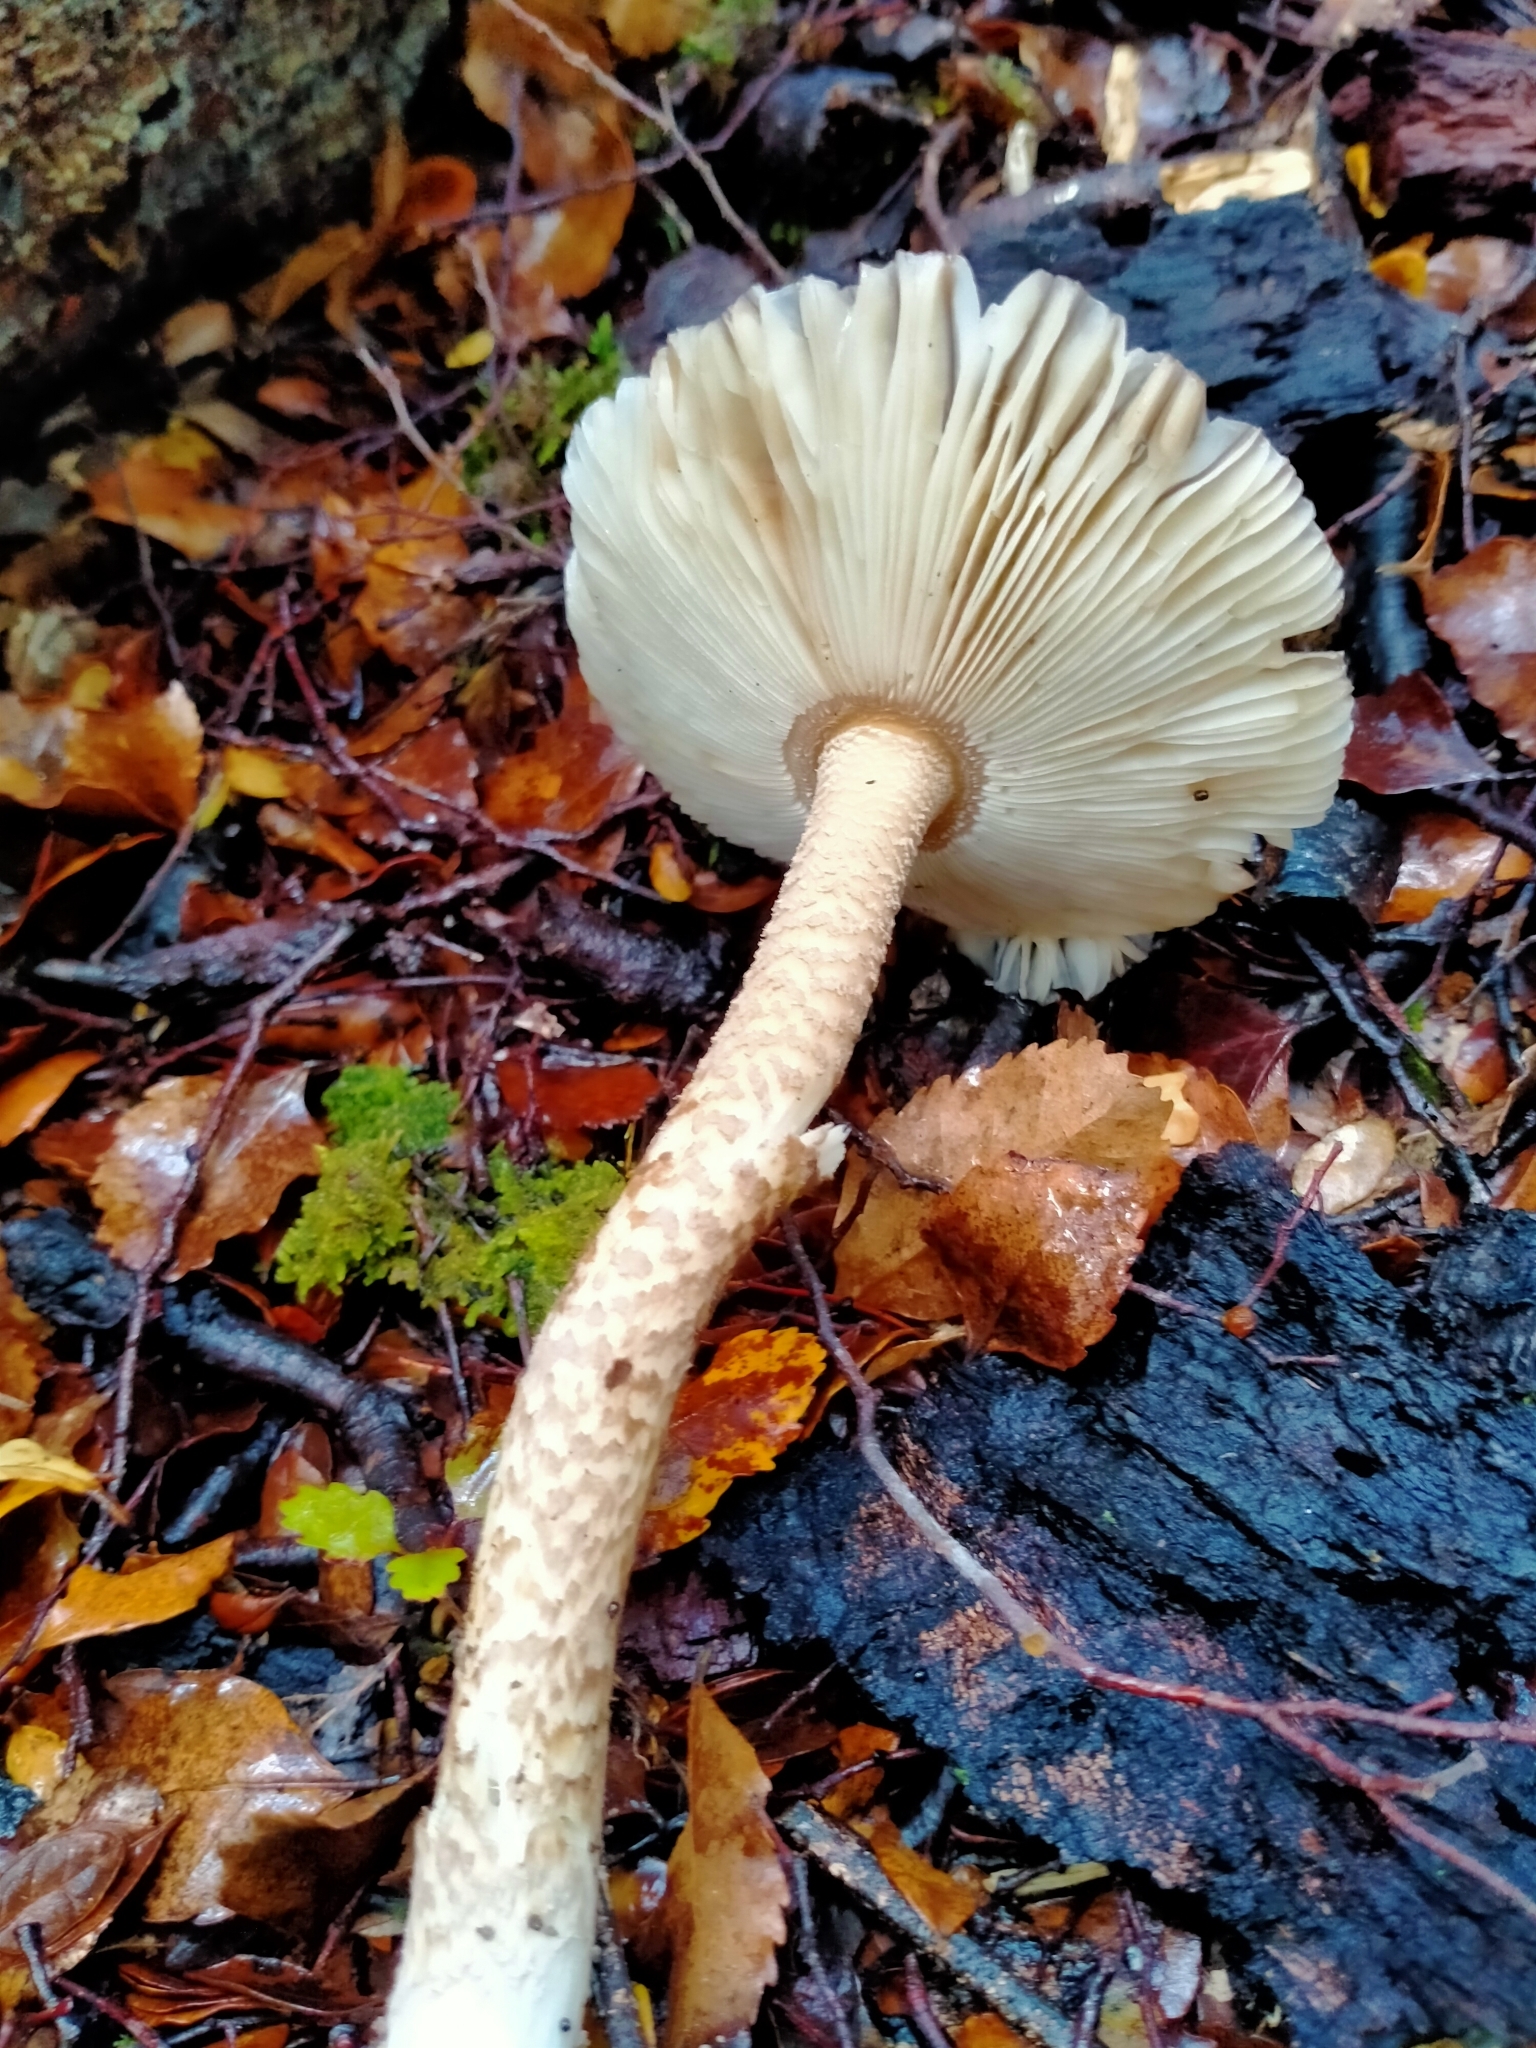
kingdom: Fungi
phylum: Basidiomycota
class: Agaricomycetes
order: Agaricales
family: Amanitaceae
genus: Amanita
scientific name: Amanita pekeoides
